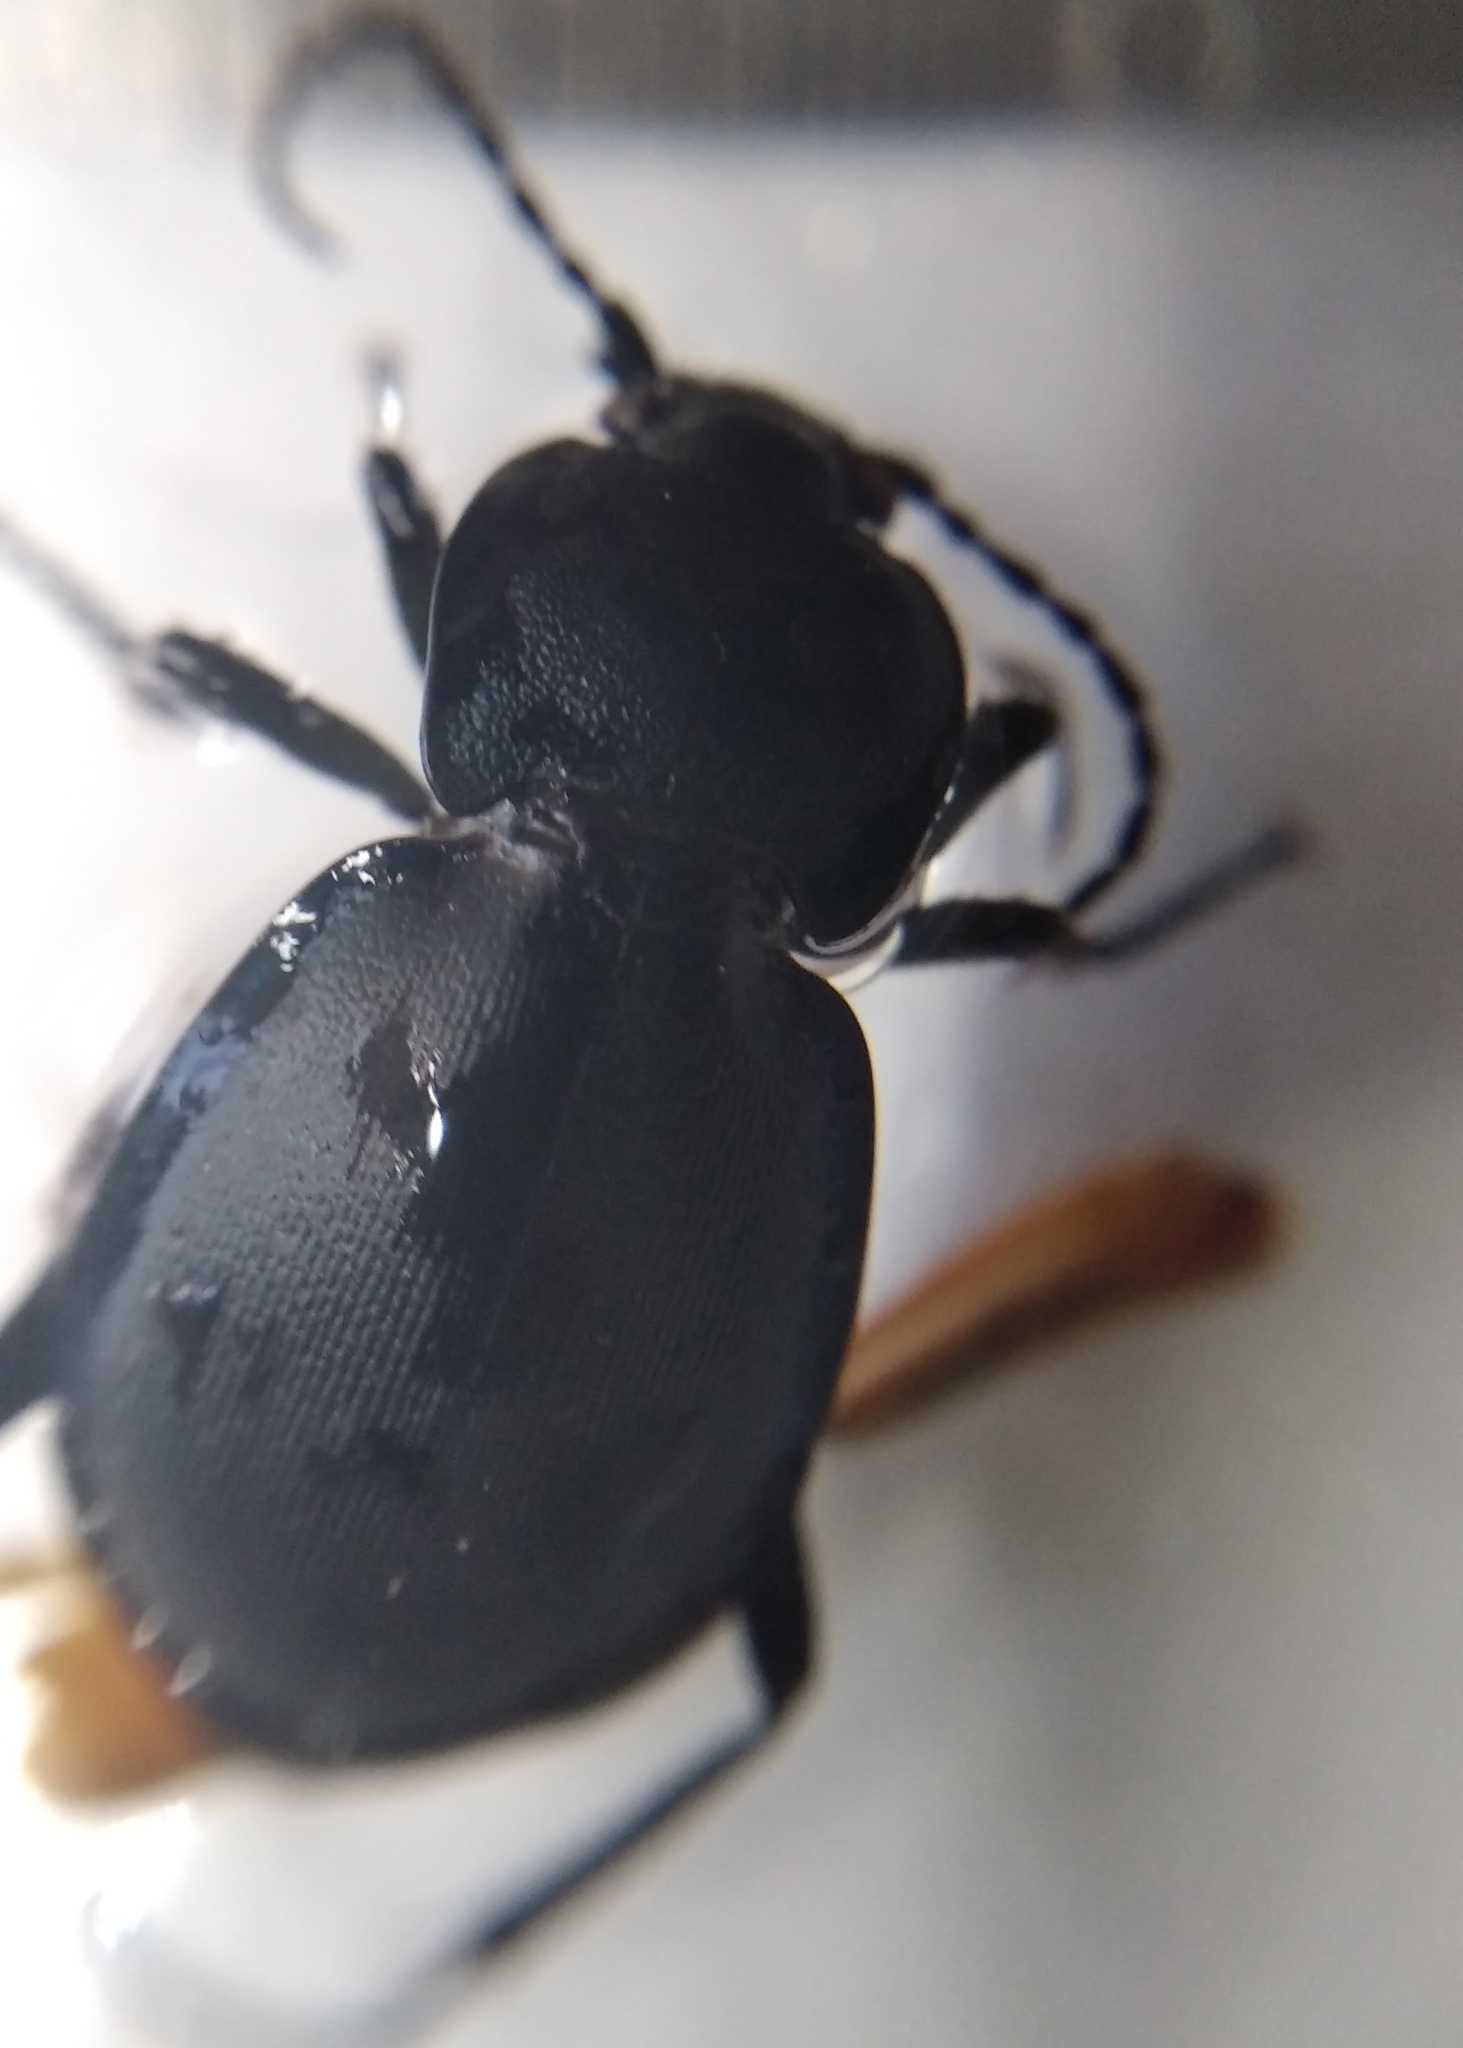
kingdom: Animalia
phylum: Arthropoda
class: Insecta
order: Coleoptera
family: Carabidae
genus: Carabus
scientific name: Carabus convexus
